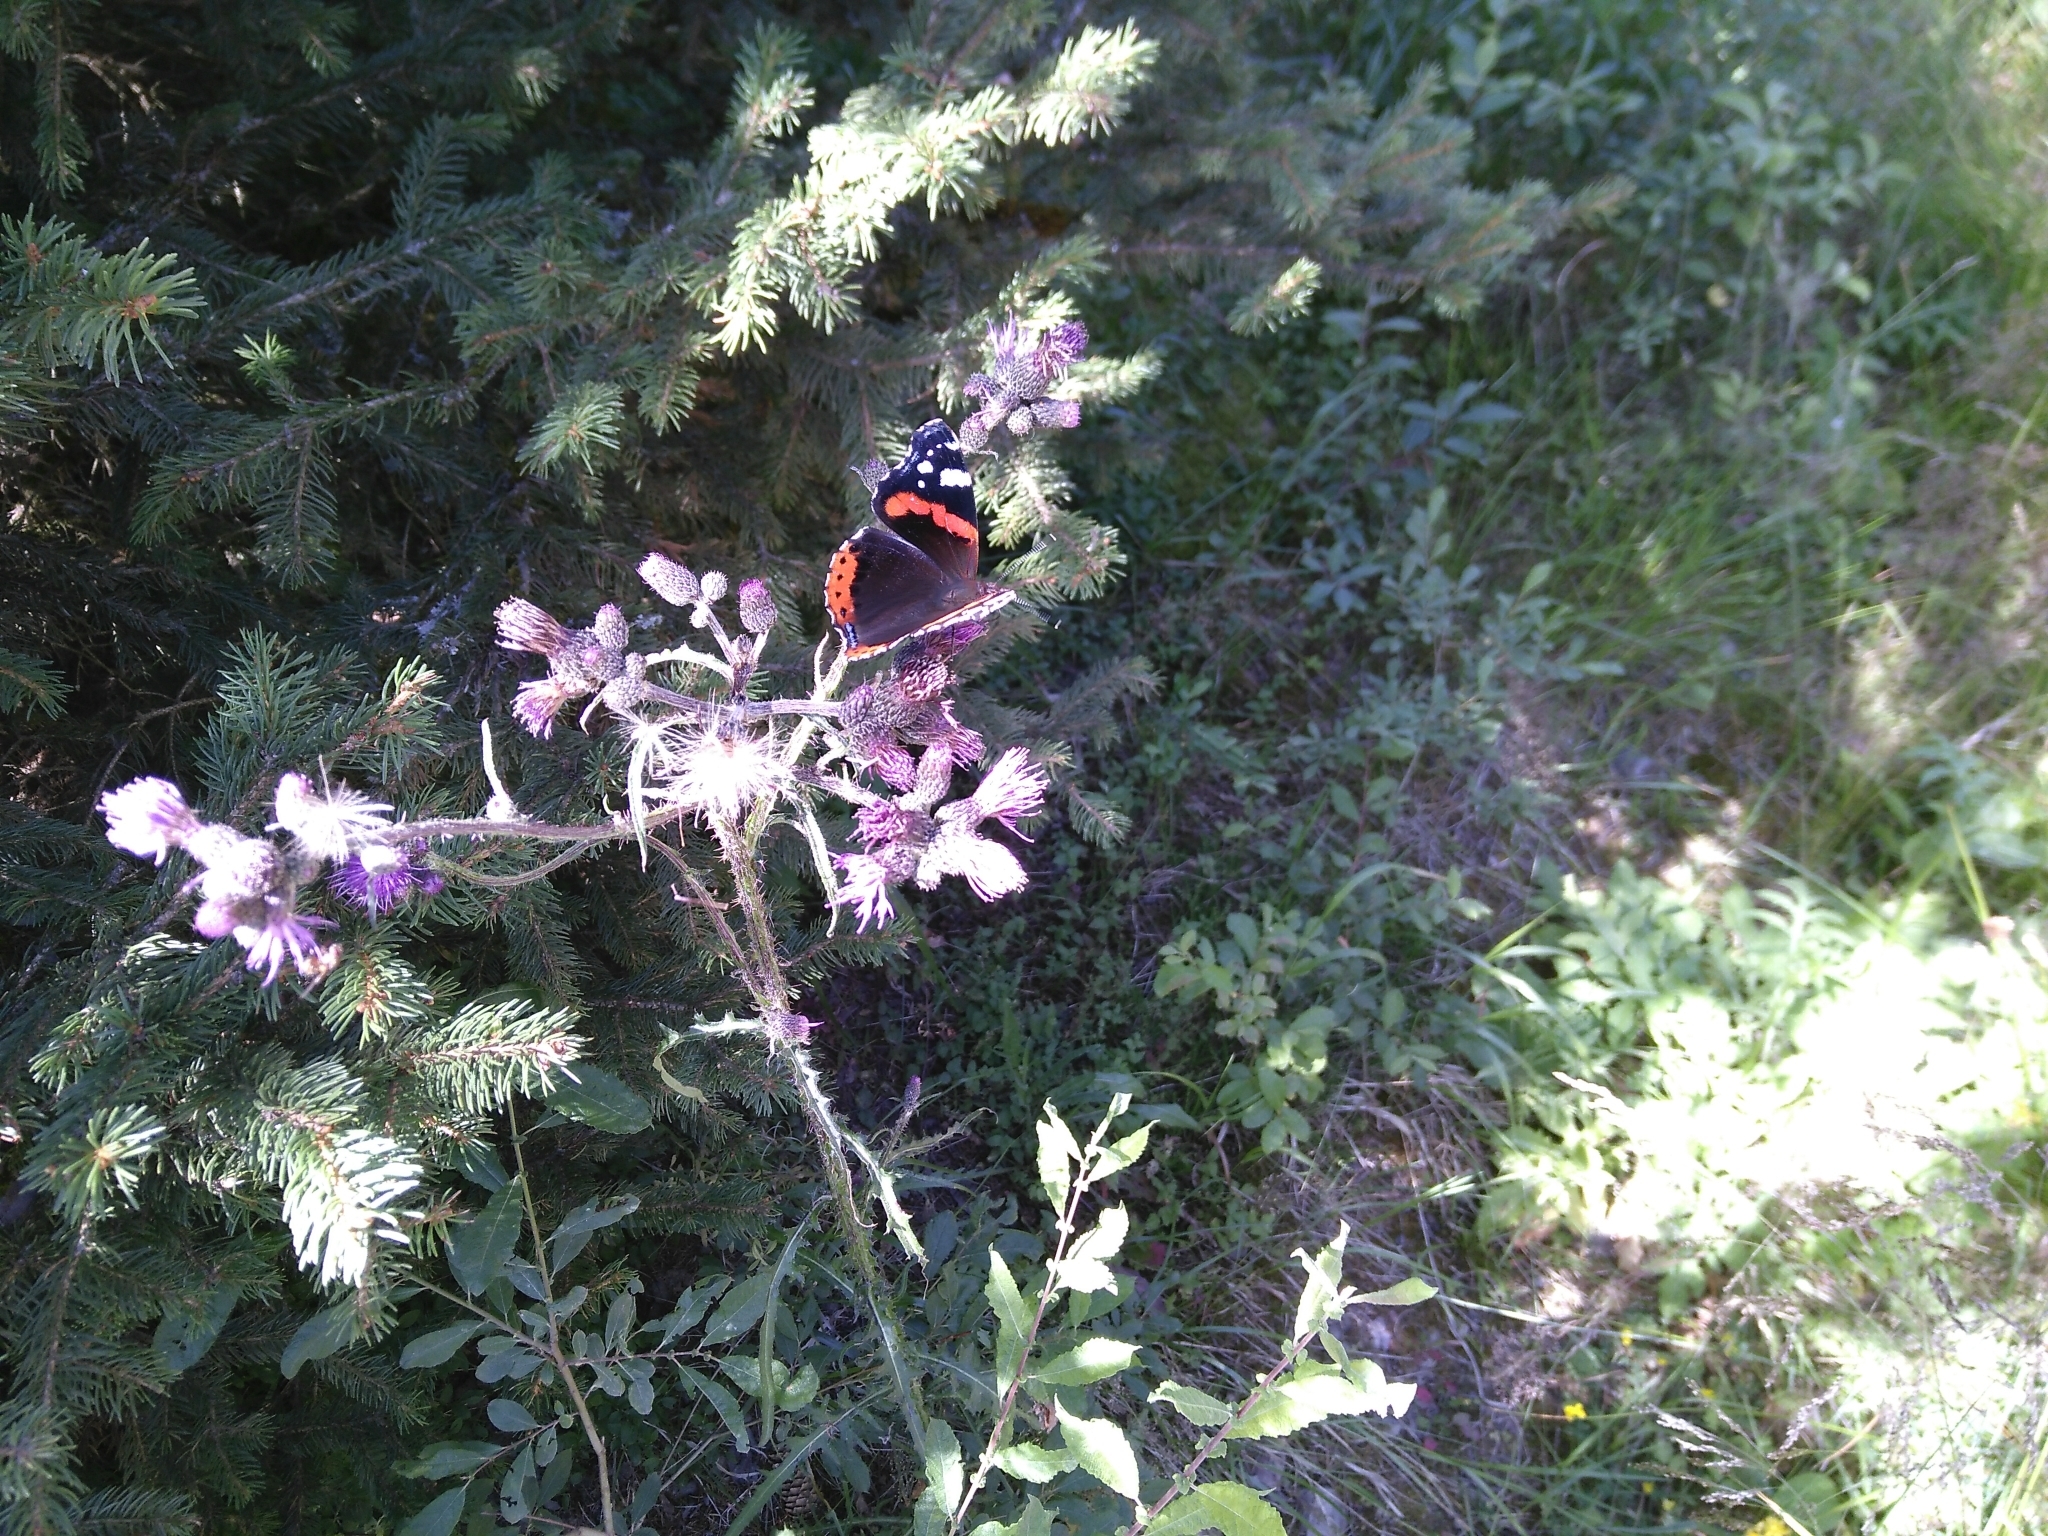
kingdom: Animalia
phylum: Arthropoda
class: Insecta
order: Lepidoptera
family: Nymphalidae
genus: Vanessa
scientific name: Vanessa atalanta
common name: Red admiral
